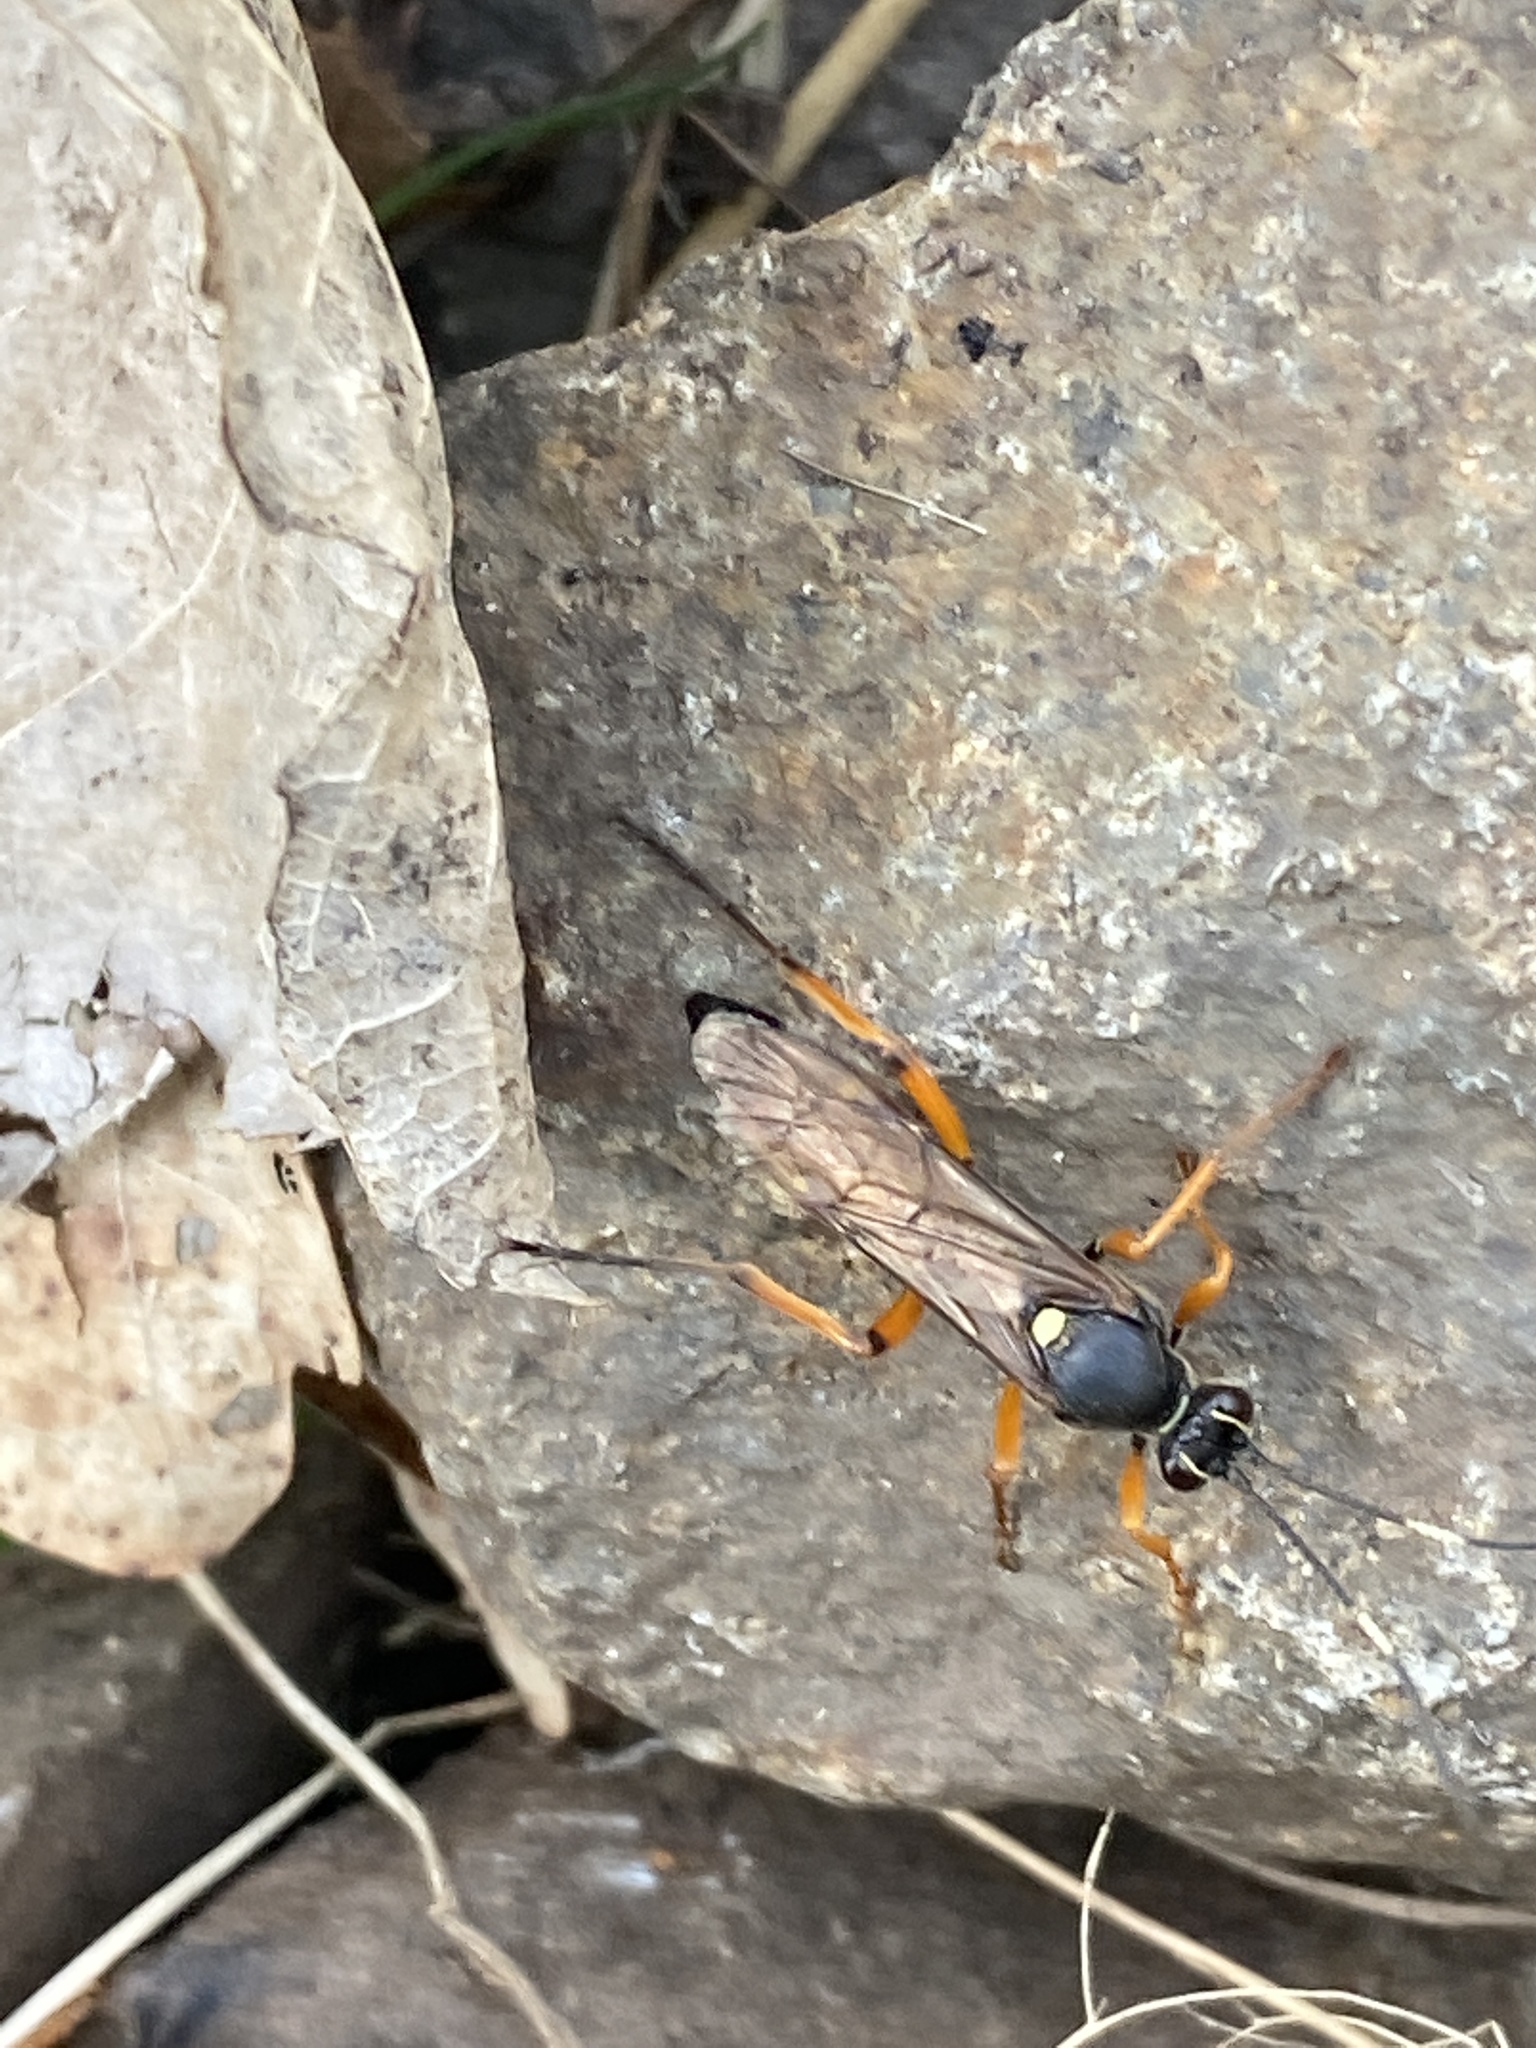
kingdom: Animalia
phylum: Arthropoda
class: Insecta
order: Hymenoptera
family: Ichneumonidae
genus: Diphyus
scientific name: Diphyus quadripunctorius
